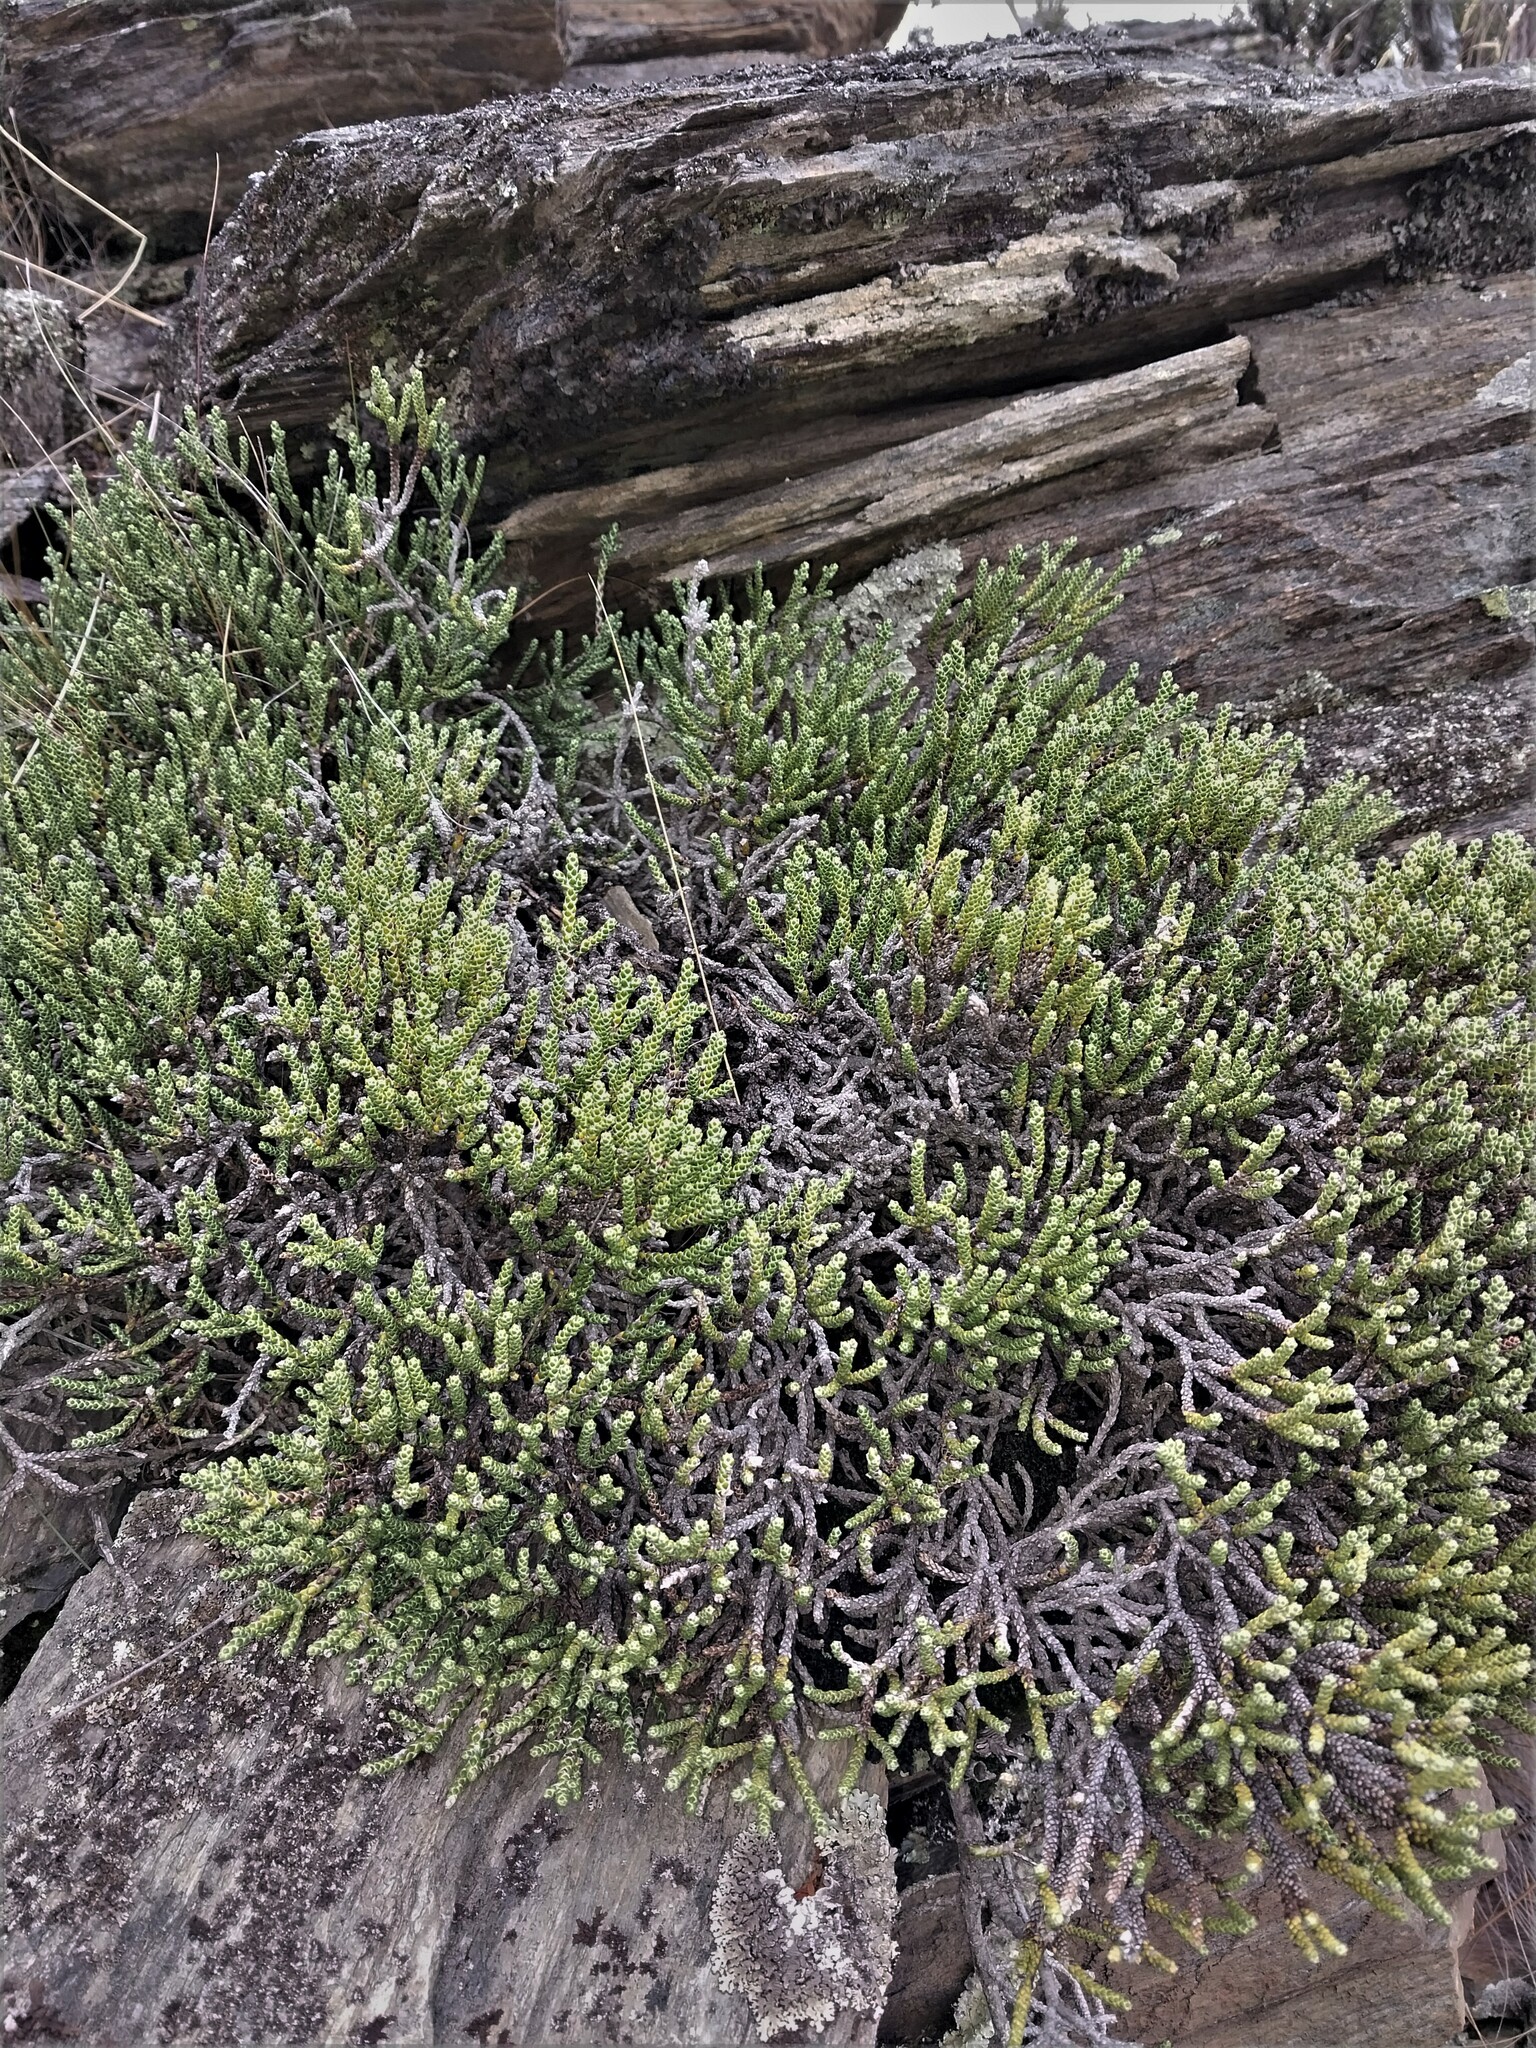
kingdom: Plantae
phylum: Tracheophyta
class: Magnoliopsida
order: Asterales
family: Asteraceae
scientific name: Asteraceae
